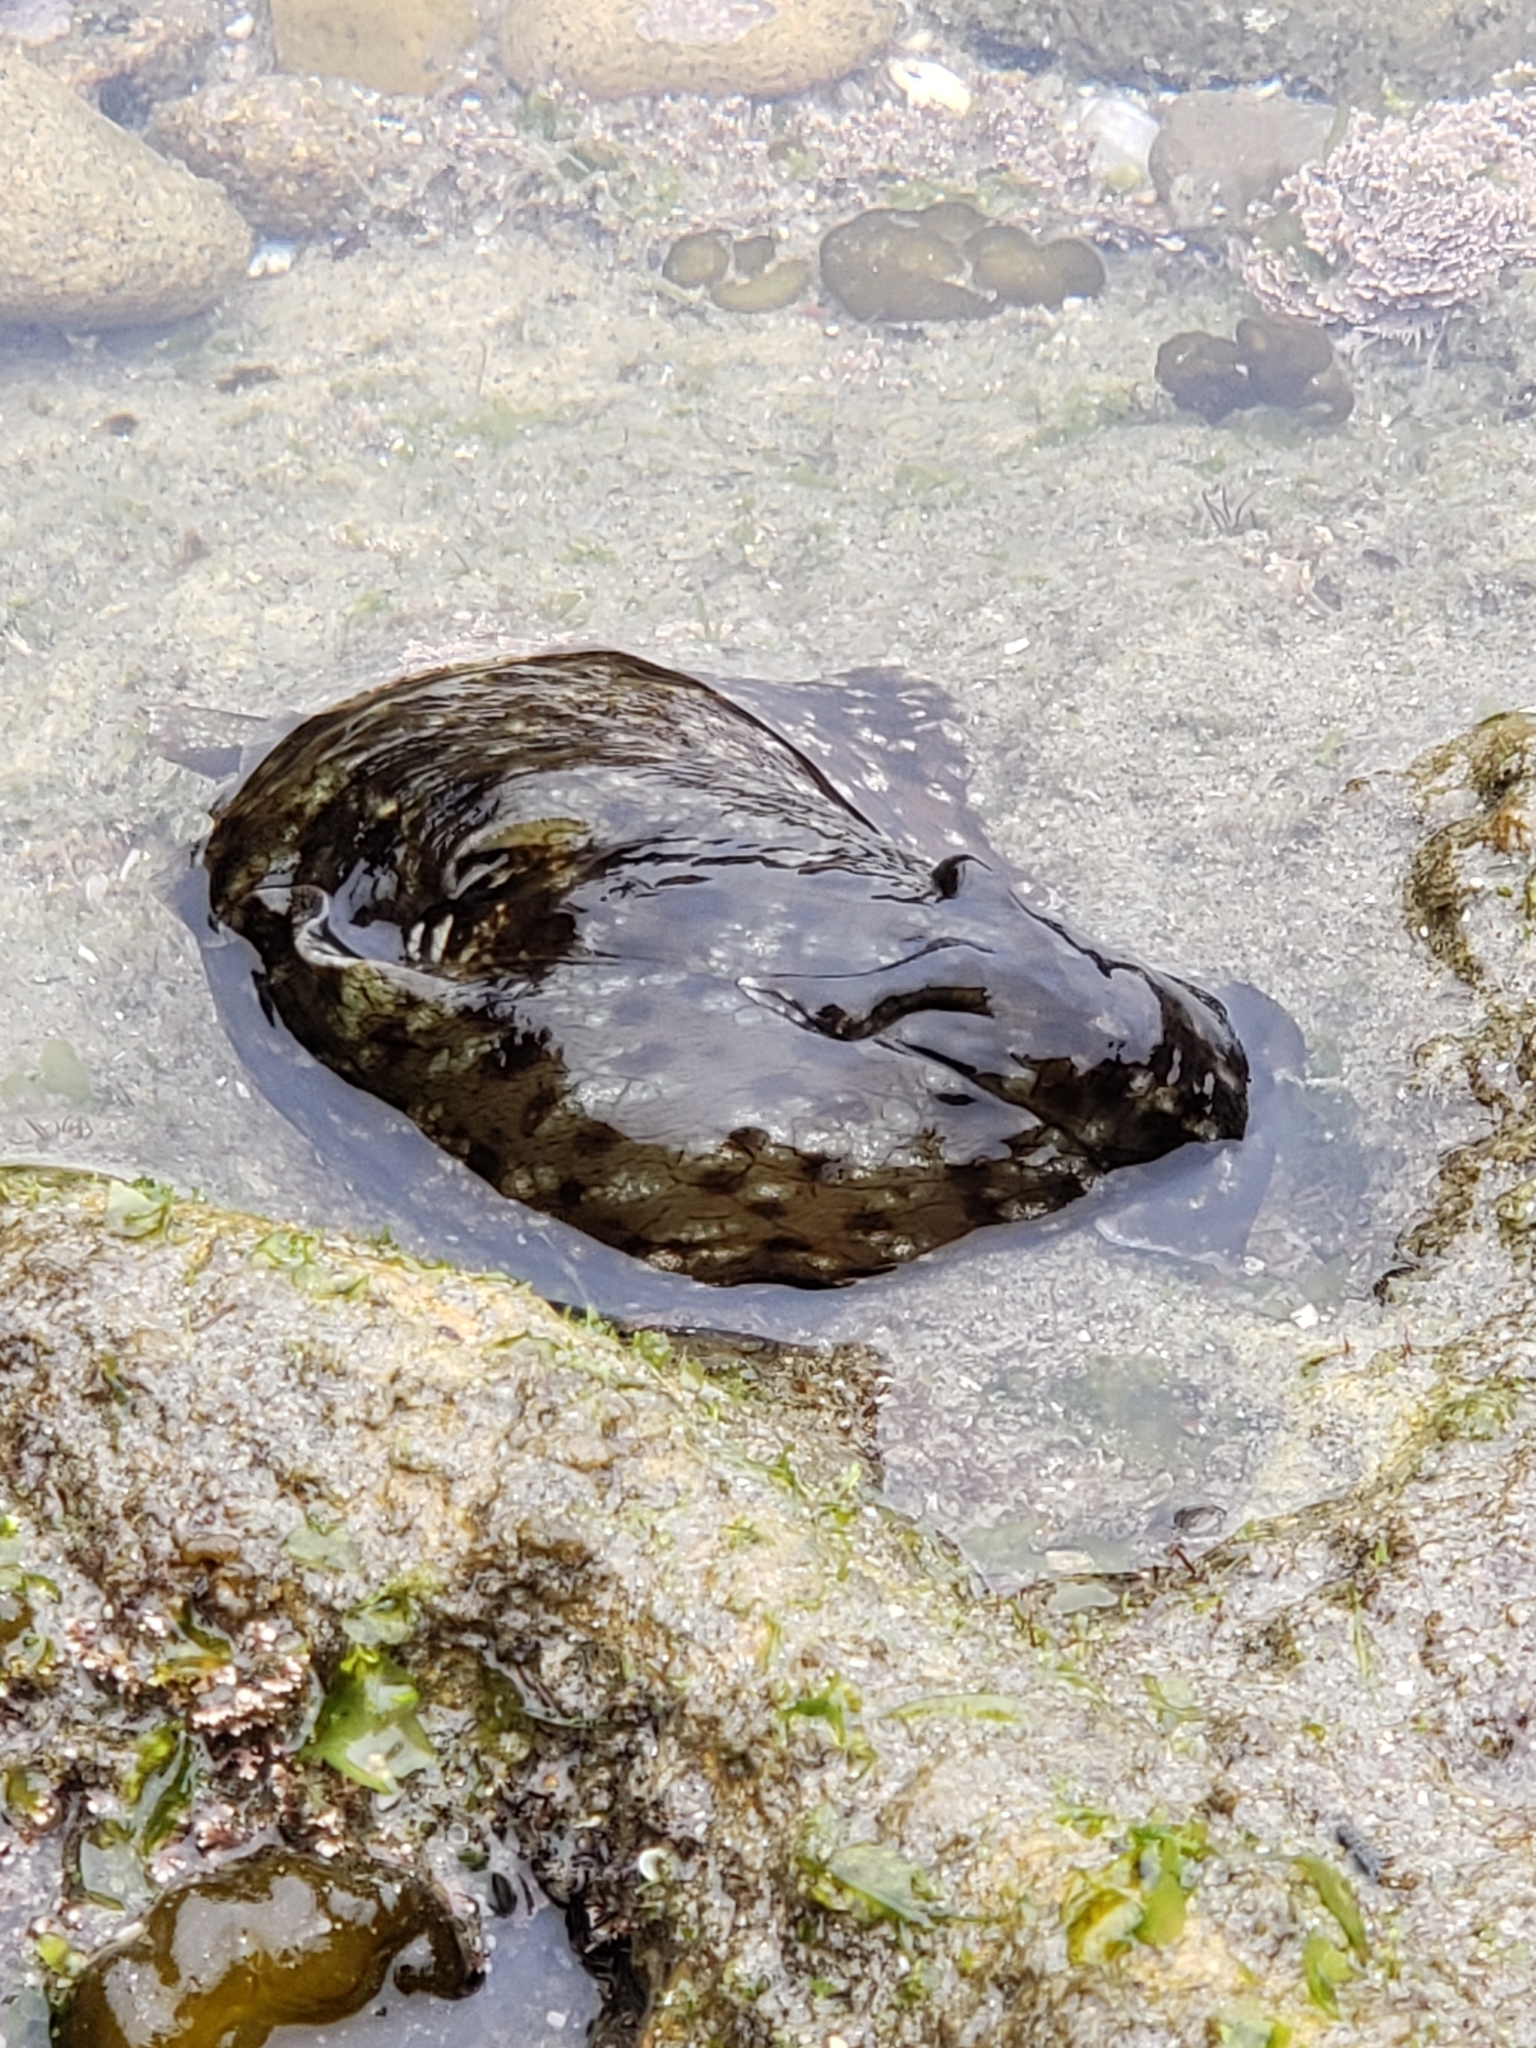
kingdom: Animalia
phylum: Mollusca
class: Gastropoda
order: Aplysiida
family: Aplysiidae
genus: Aplysia
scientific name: Aplysia californica
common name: California seahare
